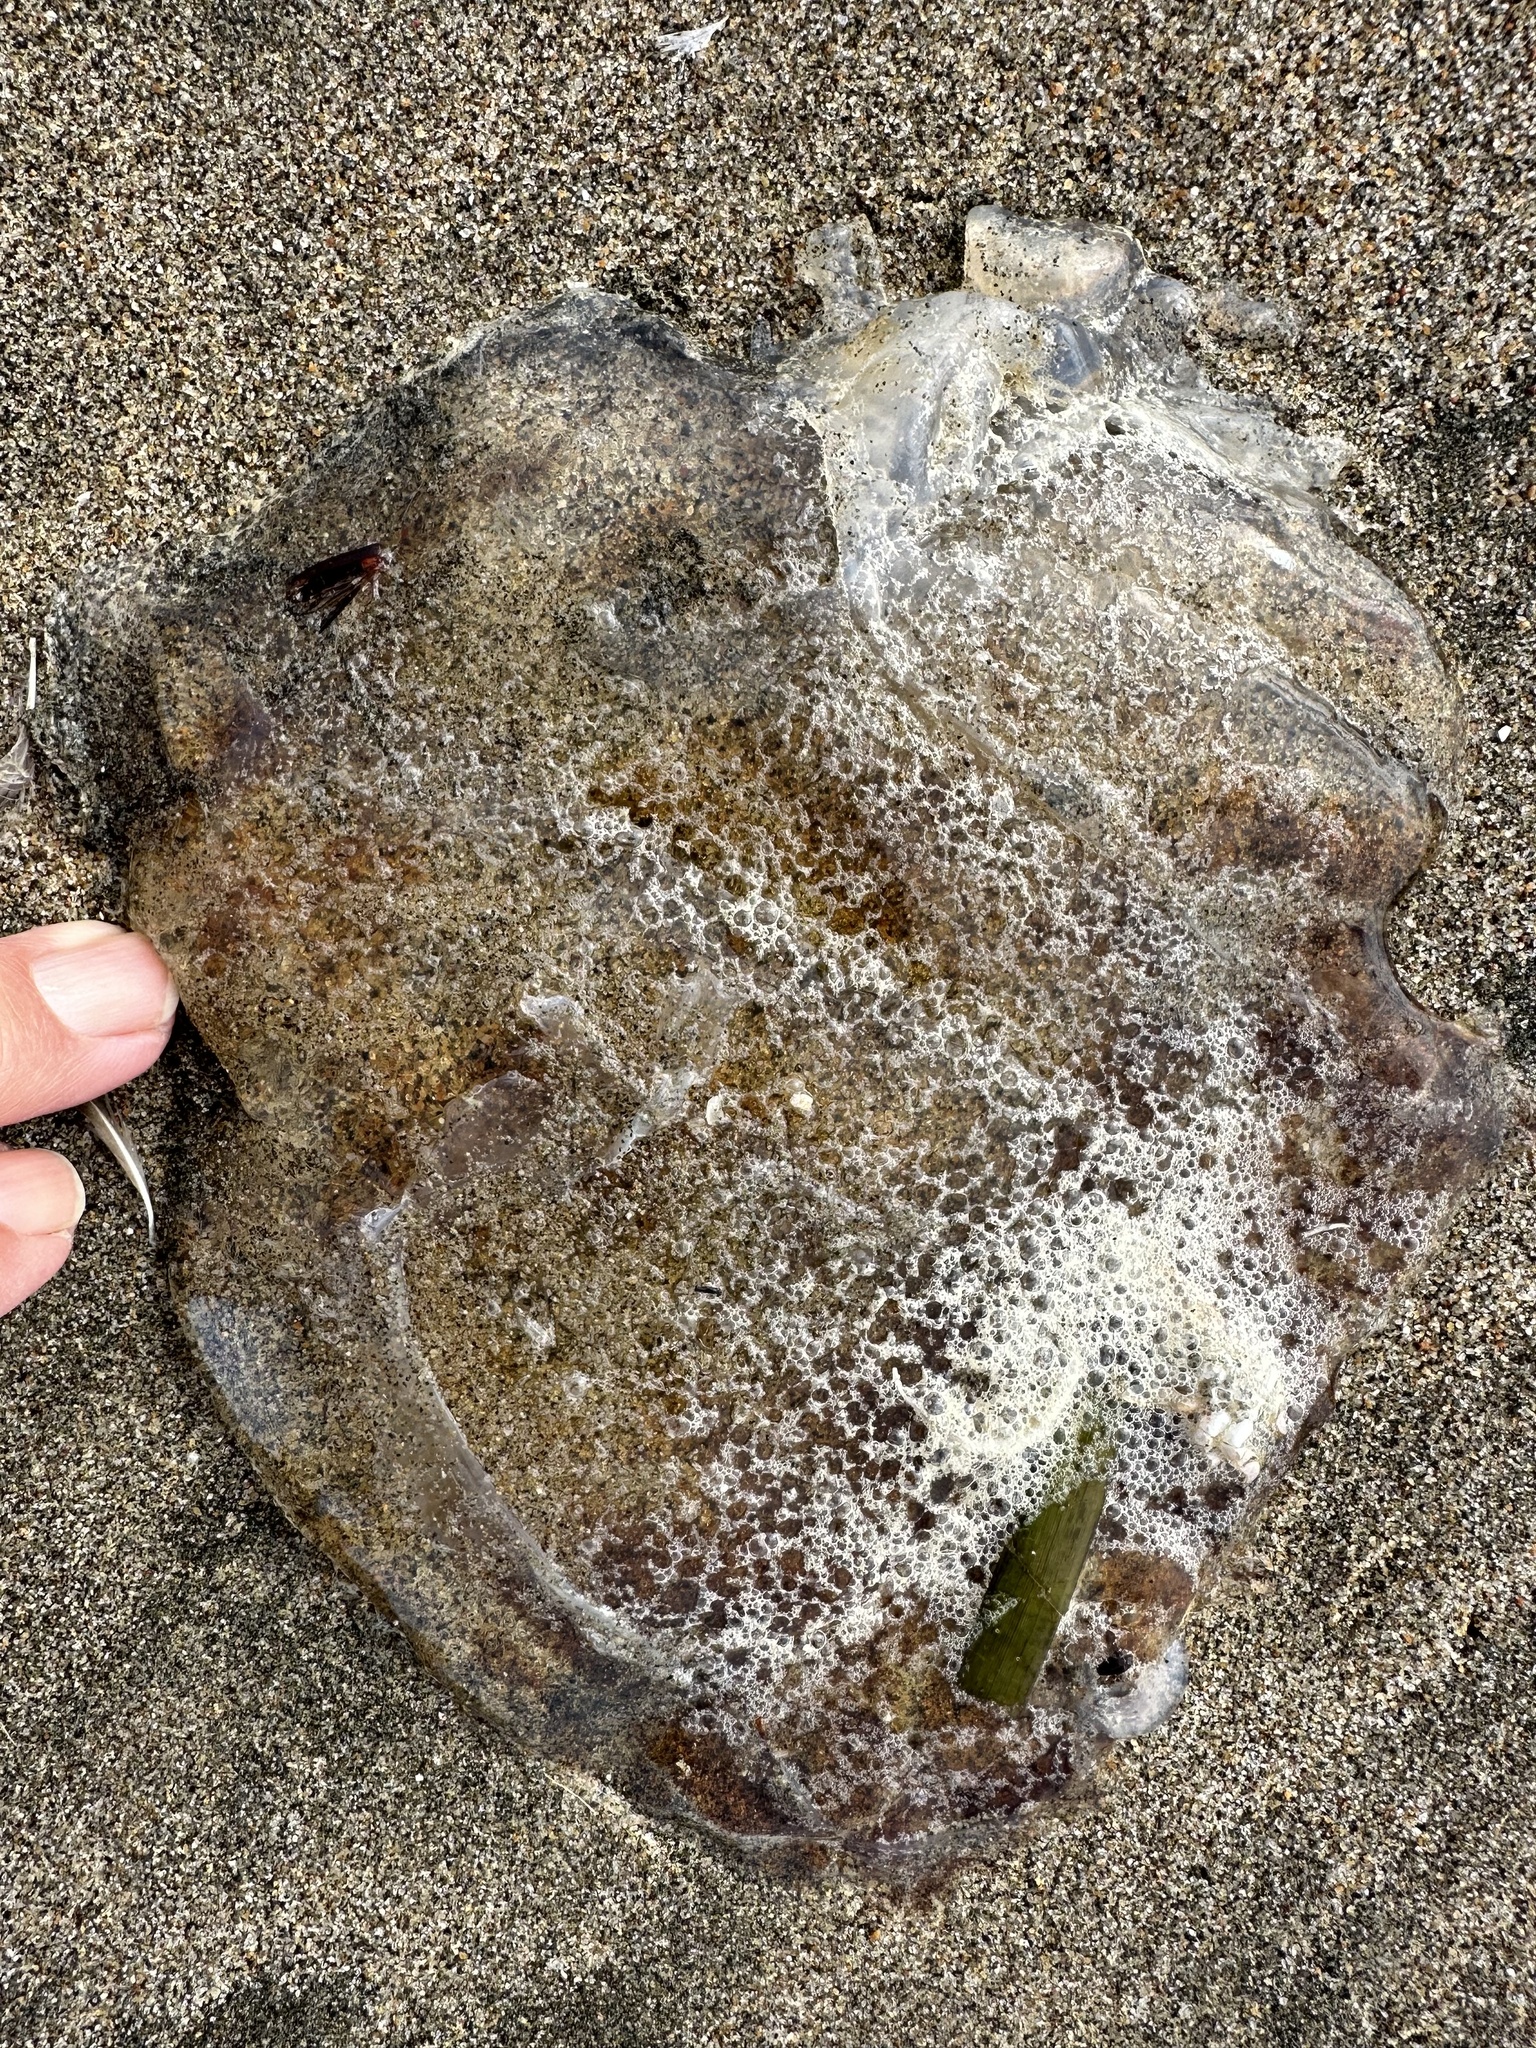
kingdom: Animalia
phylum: Cnidaria
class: Scyphozoa
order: Semaeostomeae
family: Pelagiidae
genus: Chrysaora
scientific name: Chrysaora fuscescens
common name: Sea nettle
